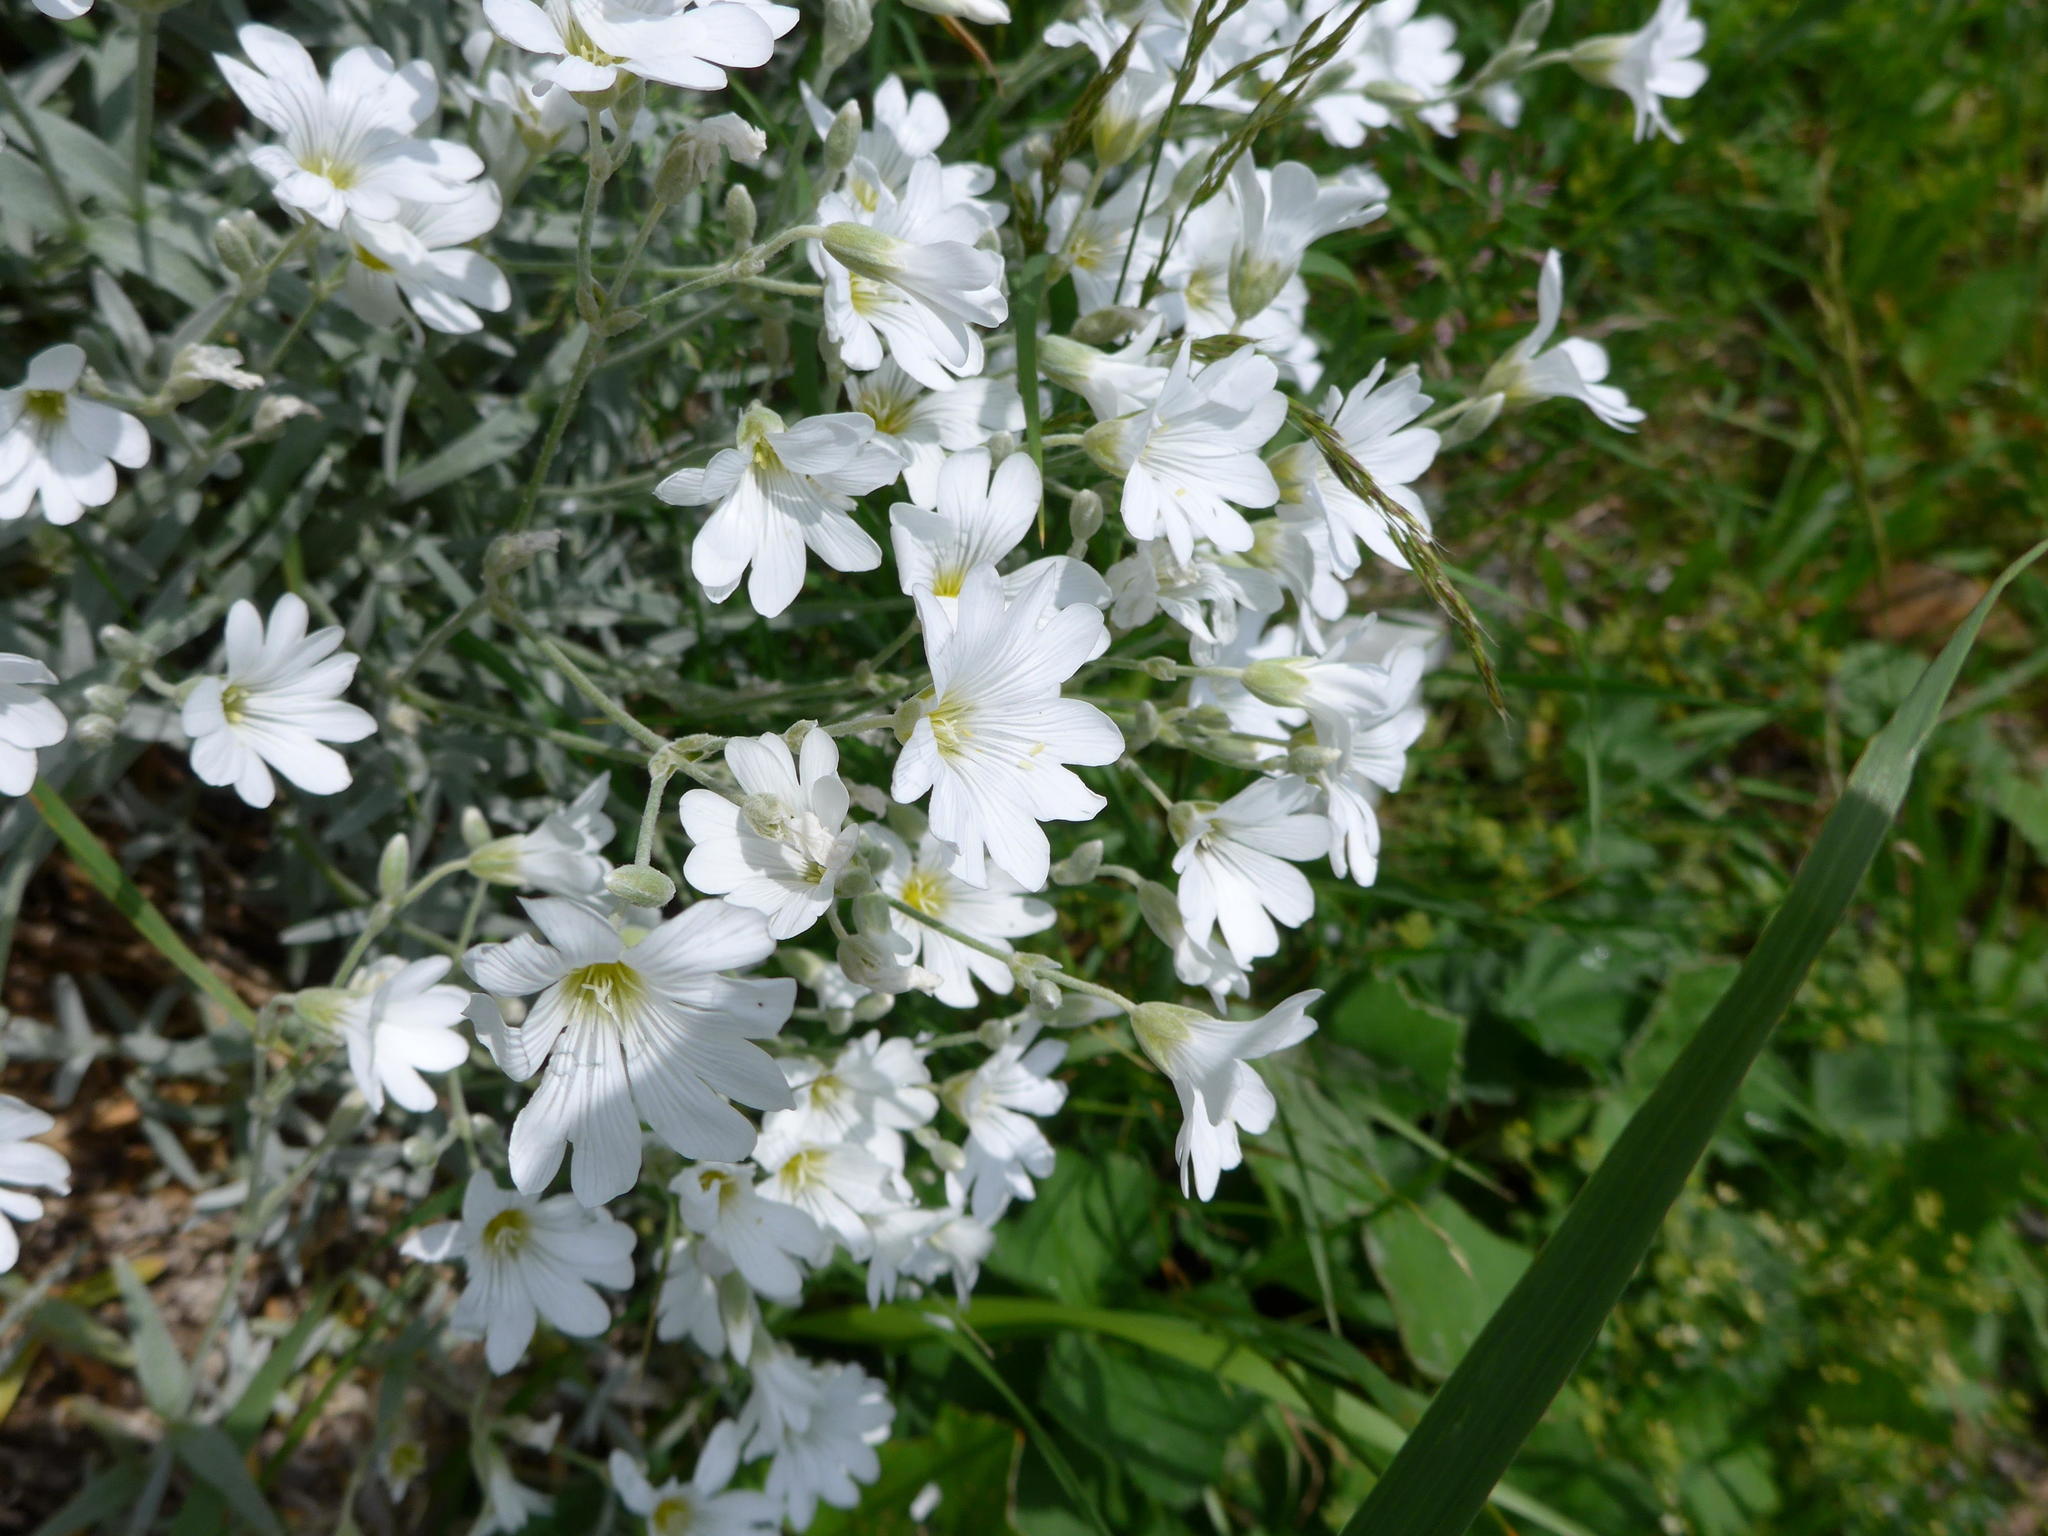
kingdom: Plantae
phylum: Tracheophyta
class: Magnoliopsida
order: Caryophyllales
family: Caryophyllaceae
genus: Cerastium
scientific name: Cerastium tomentosum
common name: Snow-in-summer
